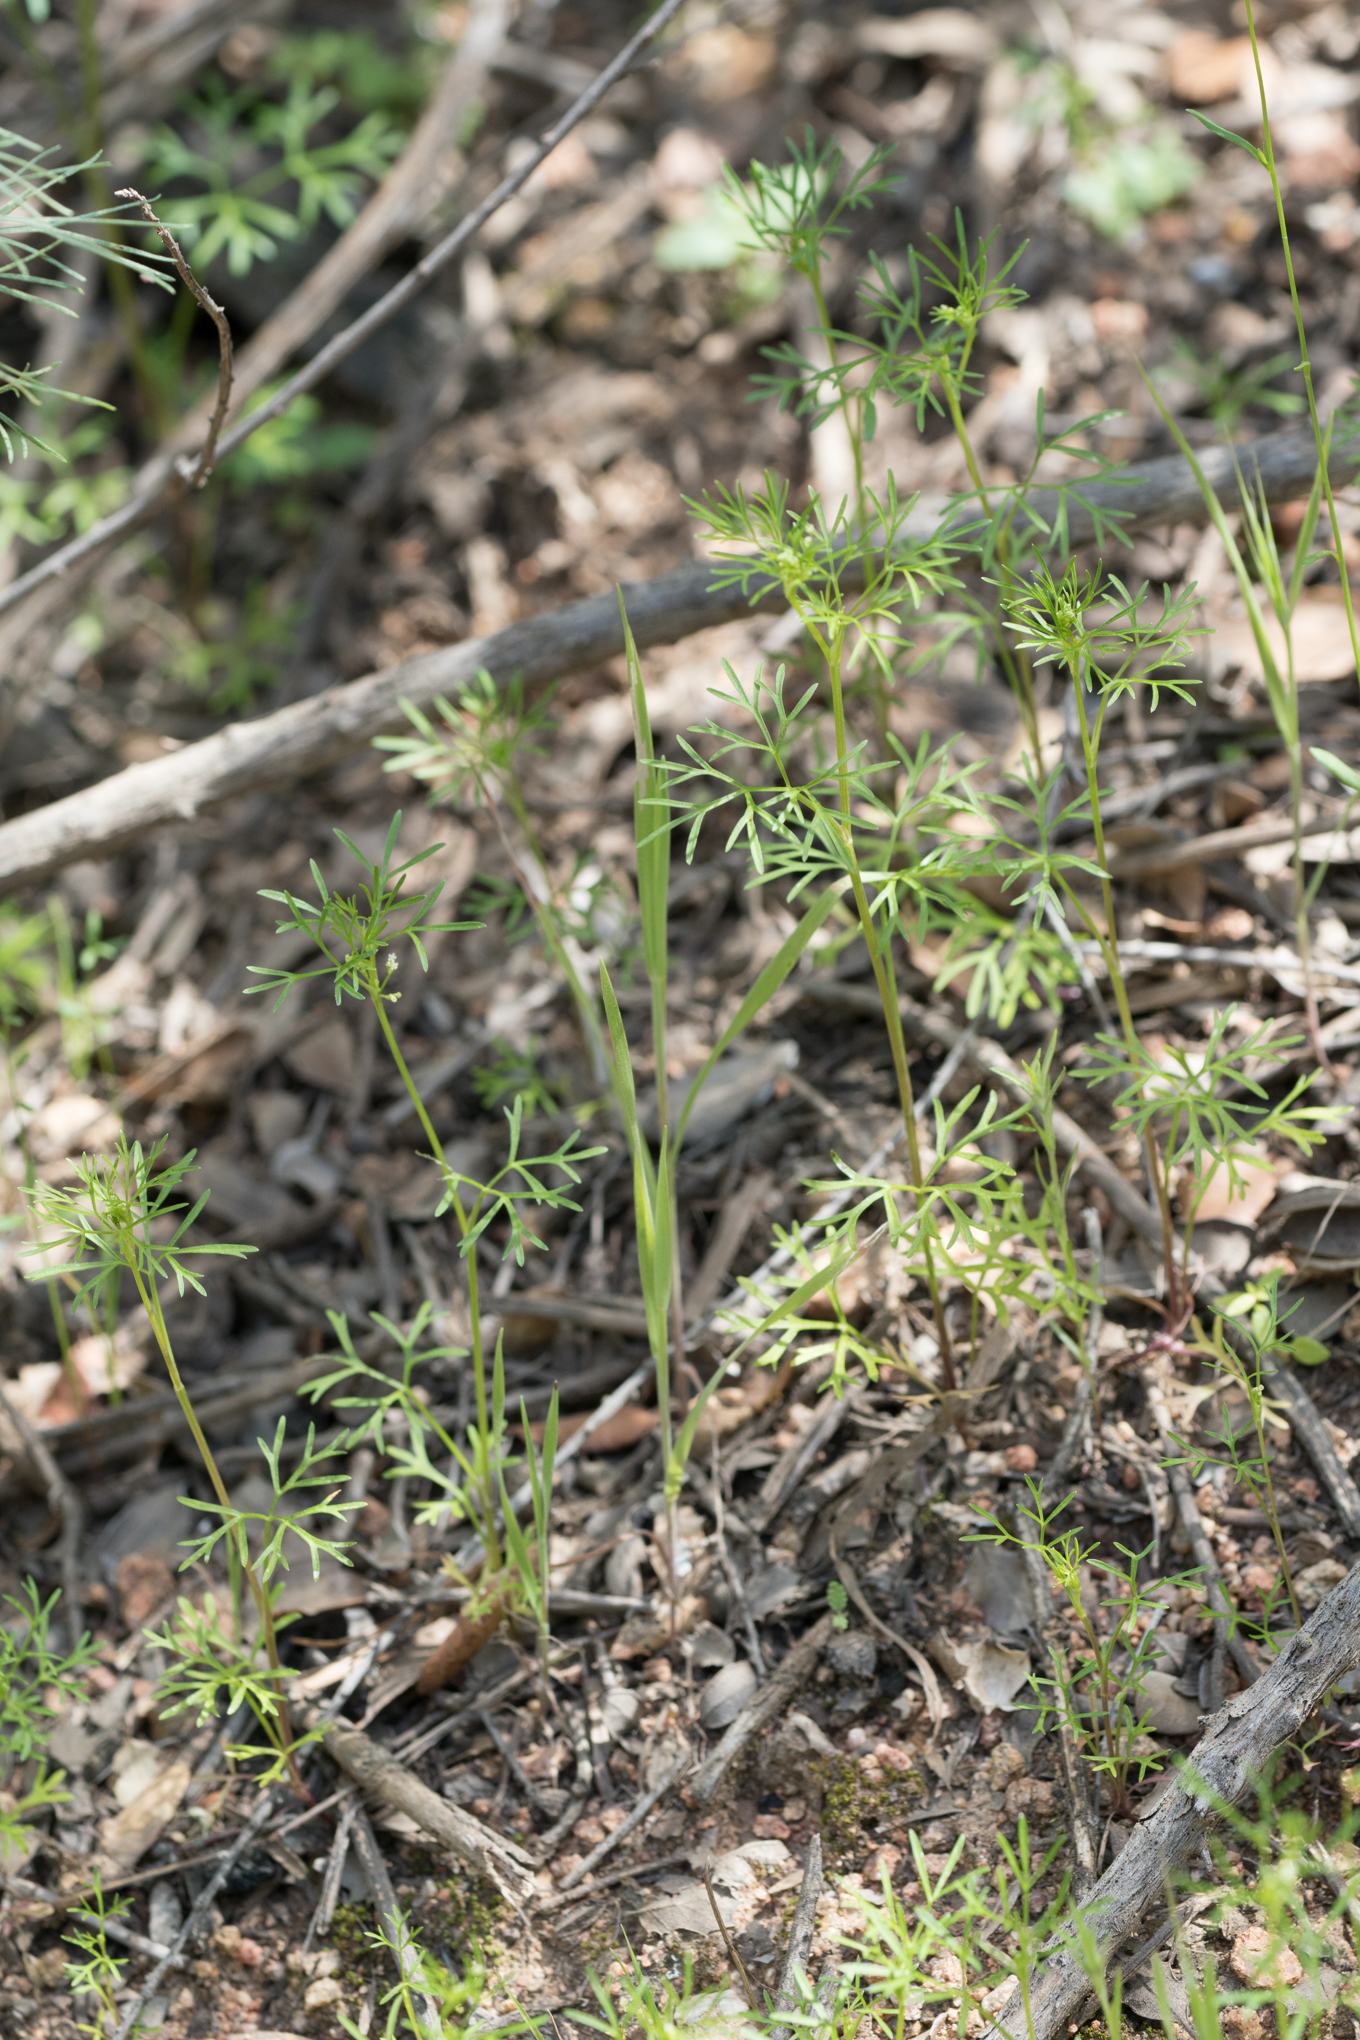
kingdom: Plantae
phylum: Tracheophyta
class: Magnoliopsida
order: Apiales
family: Apiaceae
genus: Apiastrum
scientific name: Apiastrum angustifolium
